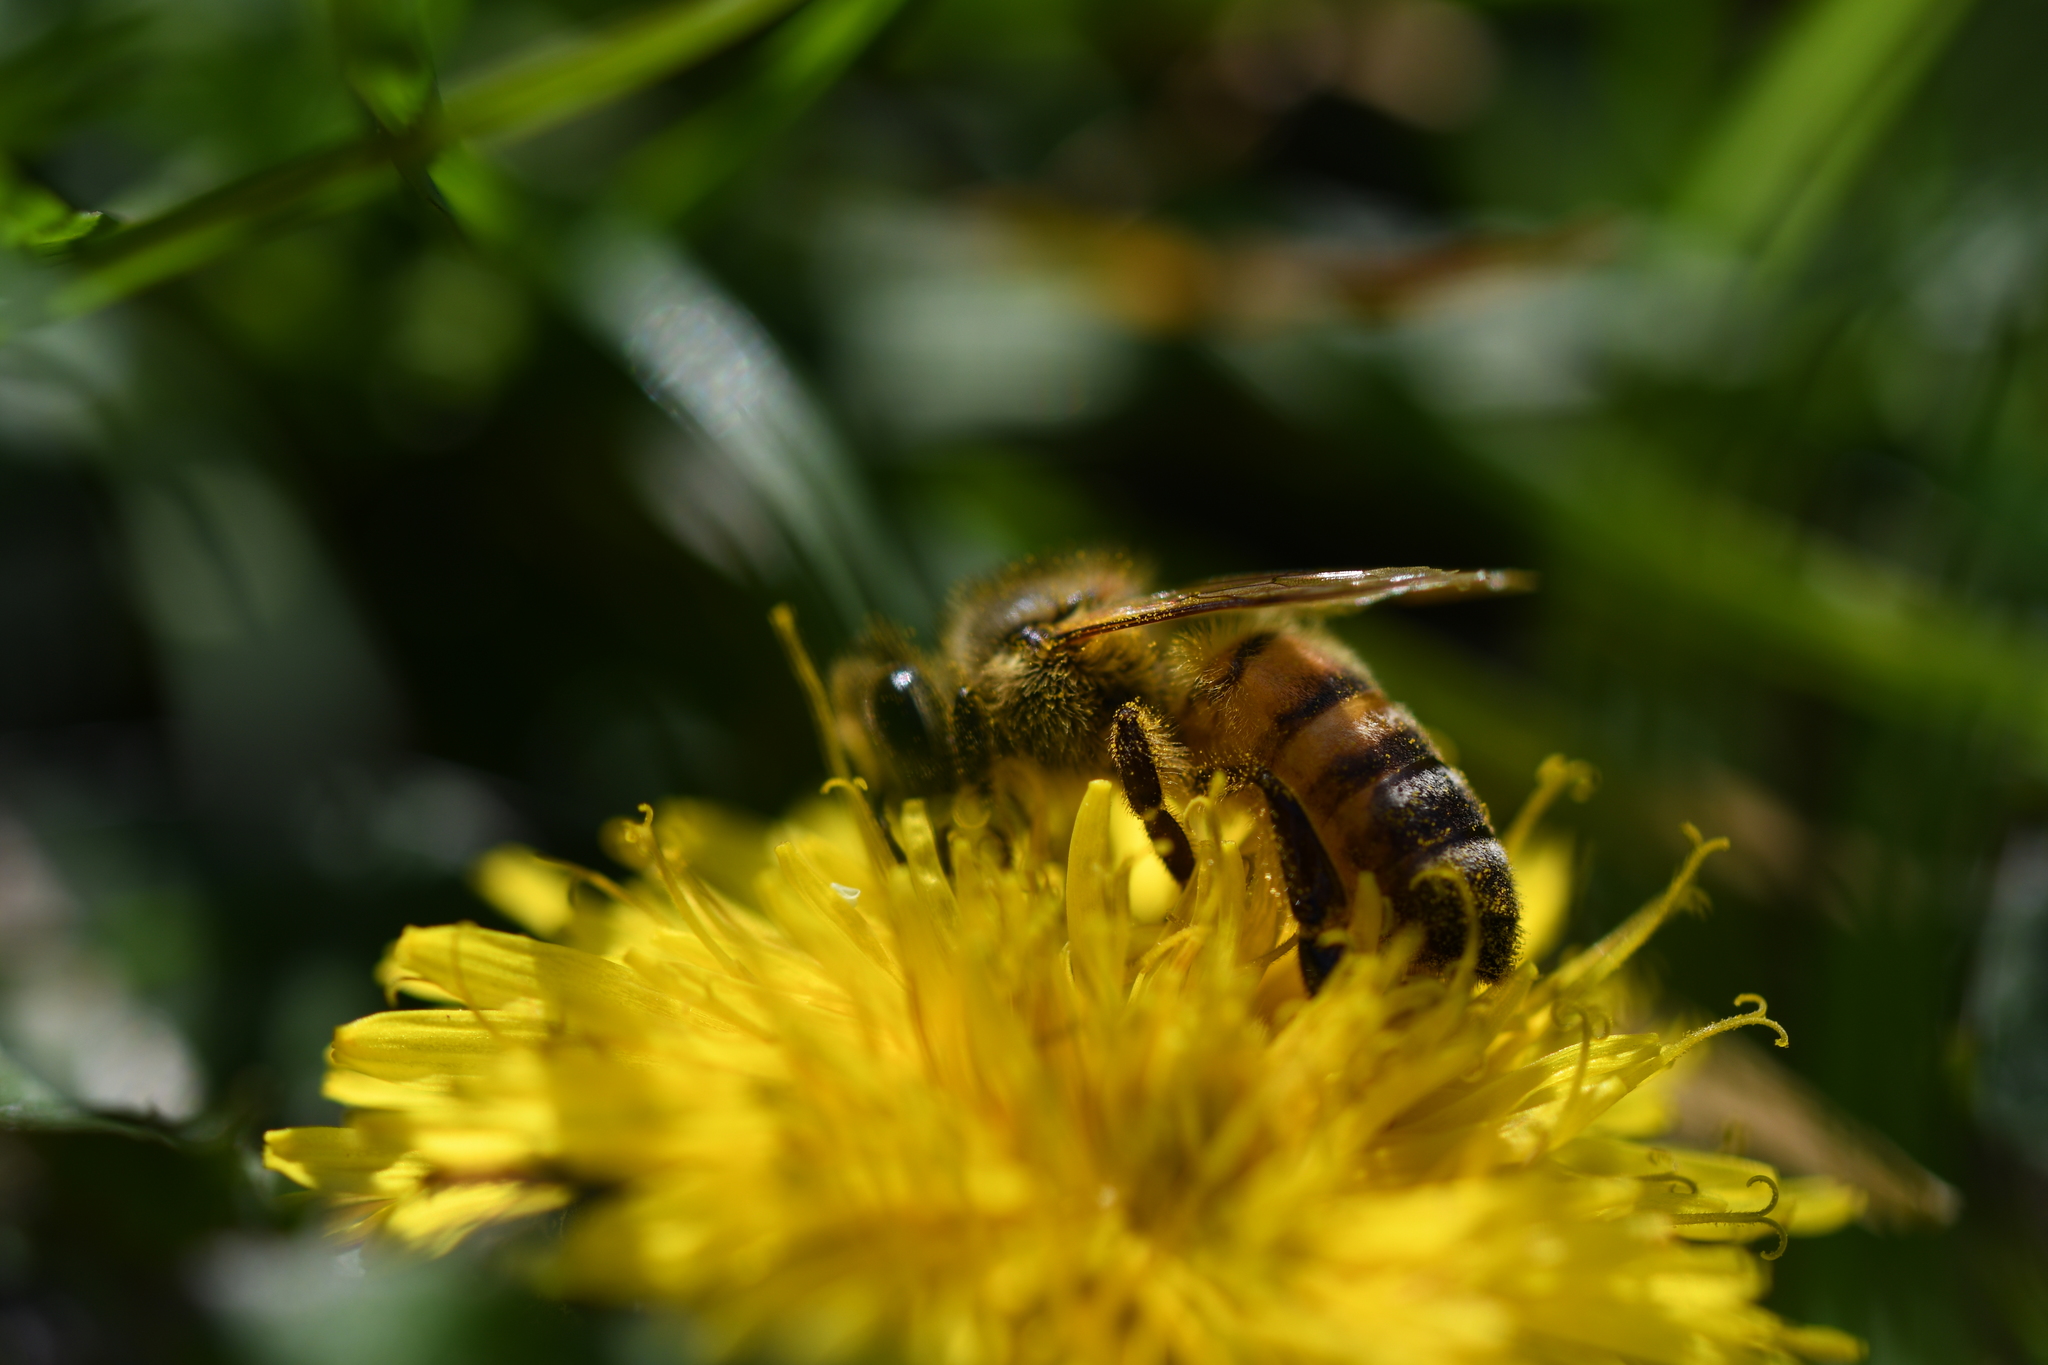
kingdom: Animalia
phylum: Arthropoda
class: Insecta
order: Hymenoptera
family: Apidae
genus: Apis
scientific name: Apis mellifera
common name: Honey bee
